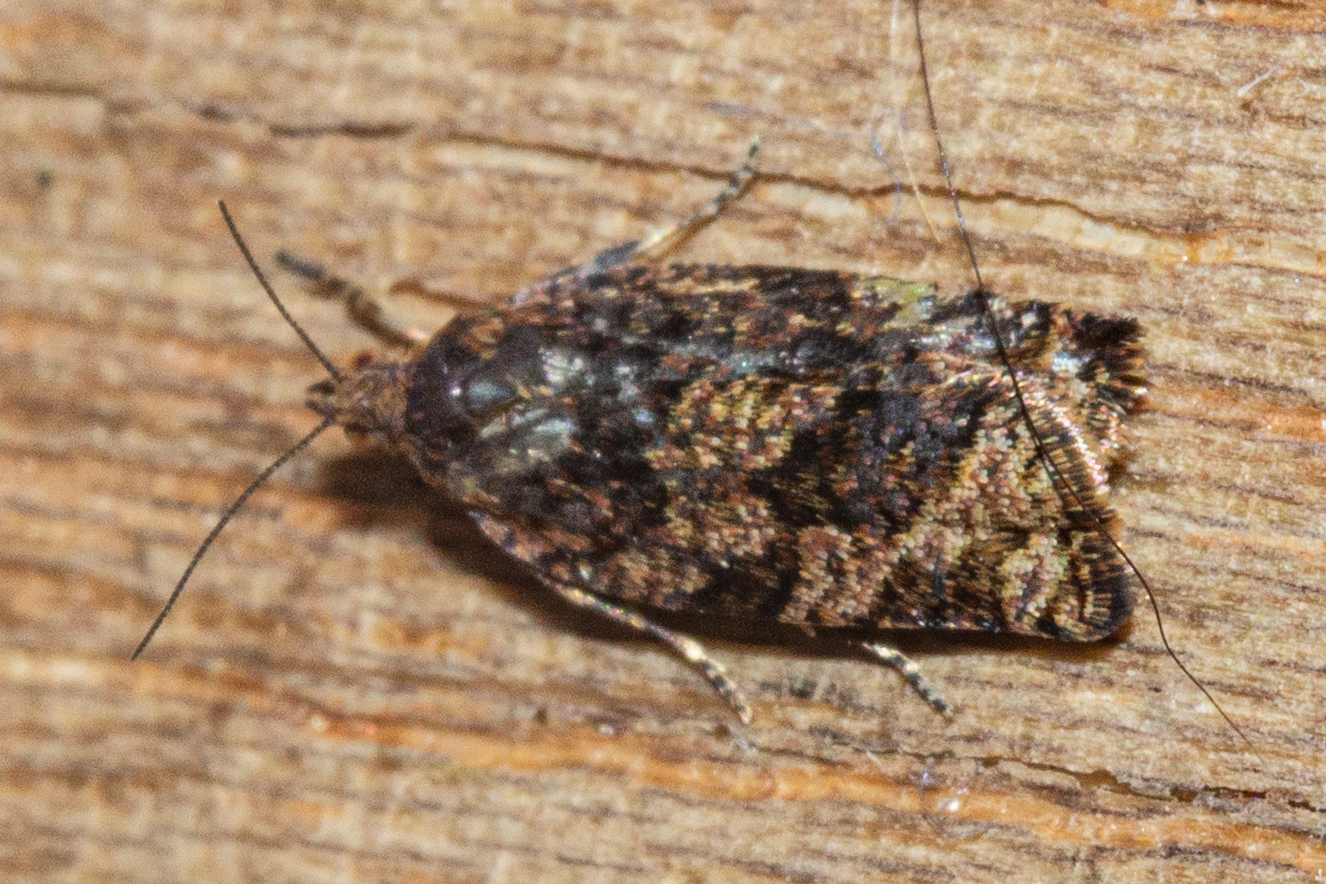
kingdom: Animalia
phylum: Arthropoda
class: Insecta
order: Lepidoptera
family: Tortricidae
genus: Capua
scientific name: Capua intractana
